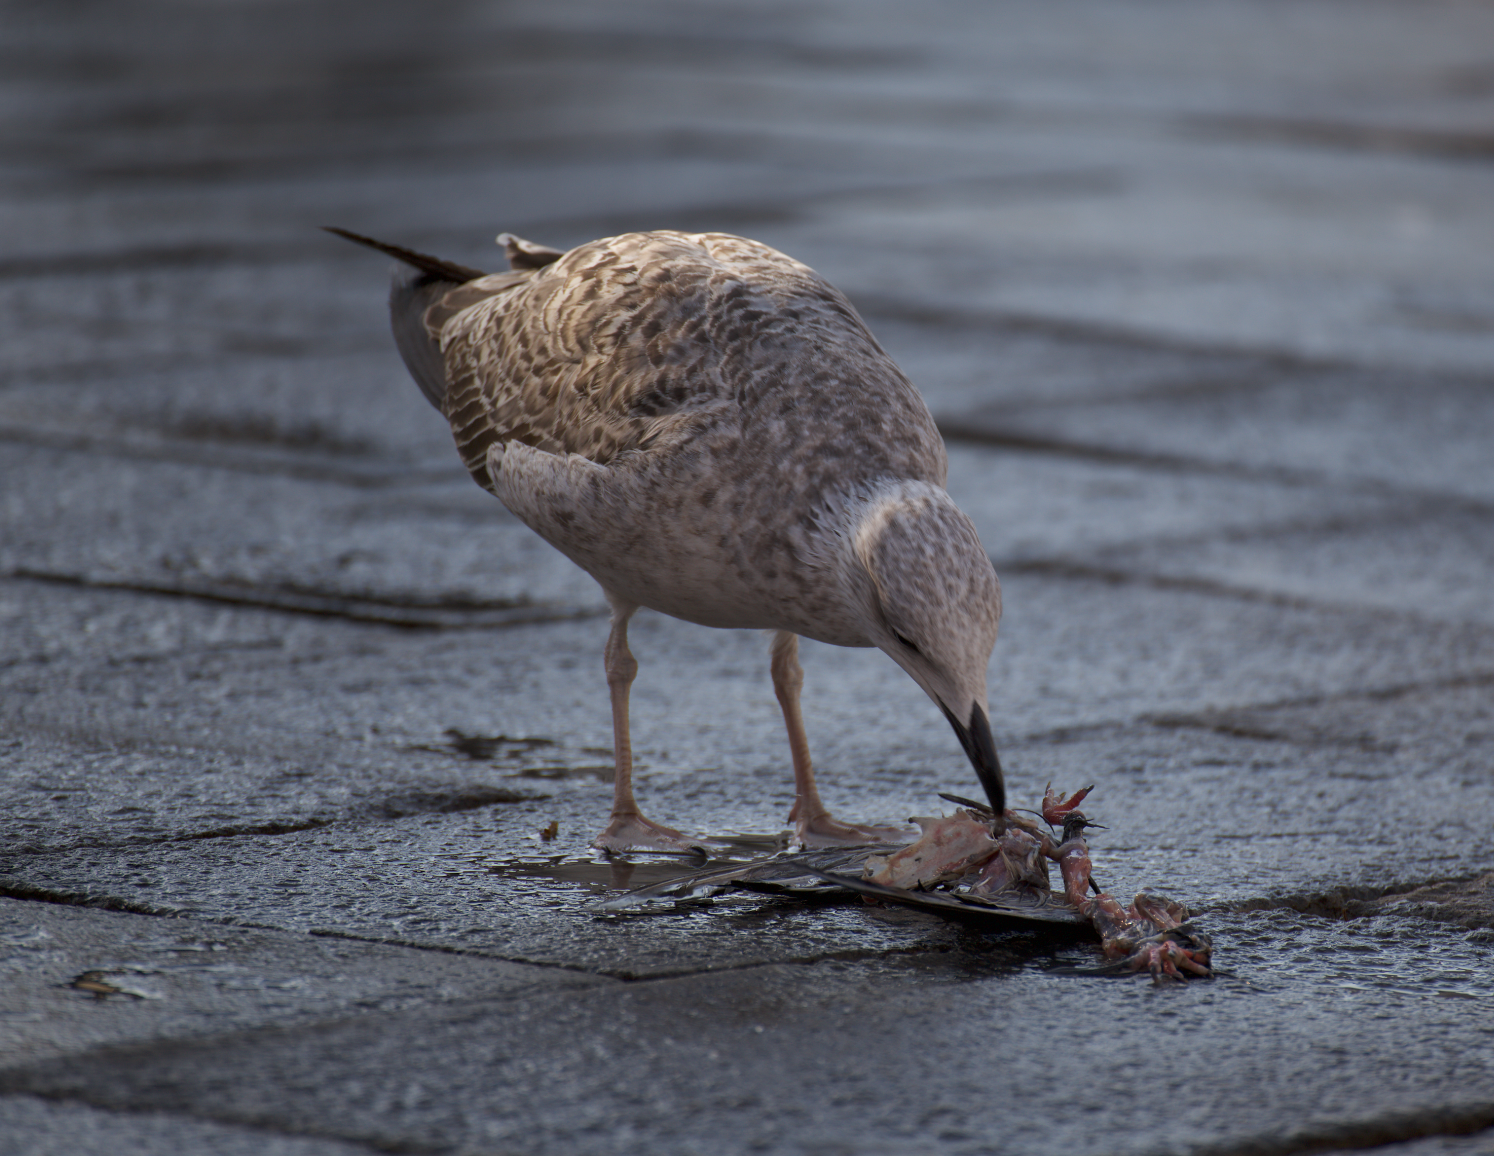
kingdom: Animalia
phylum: Chordata
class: Aves
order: Charadriiformes
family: Laridae
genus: Larus
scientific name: Larus michahellis
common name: Yellow-legged gull
